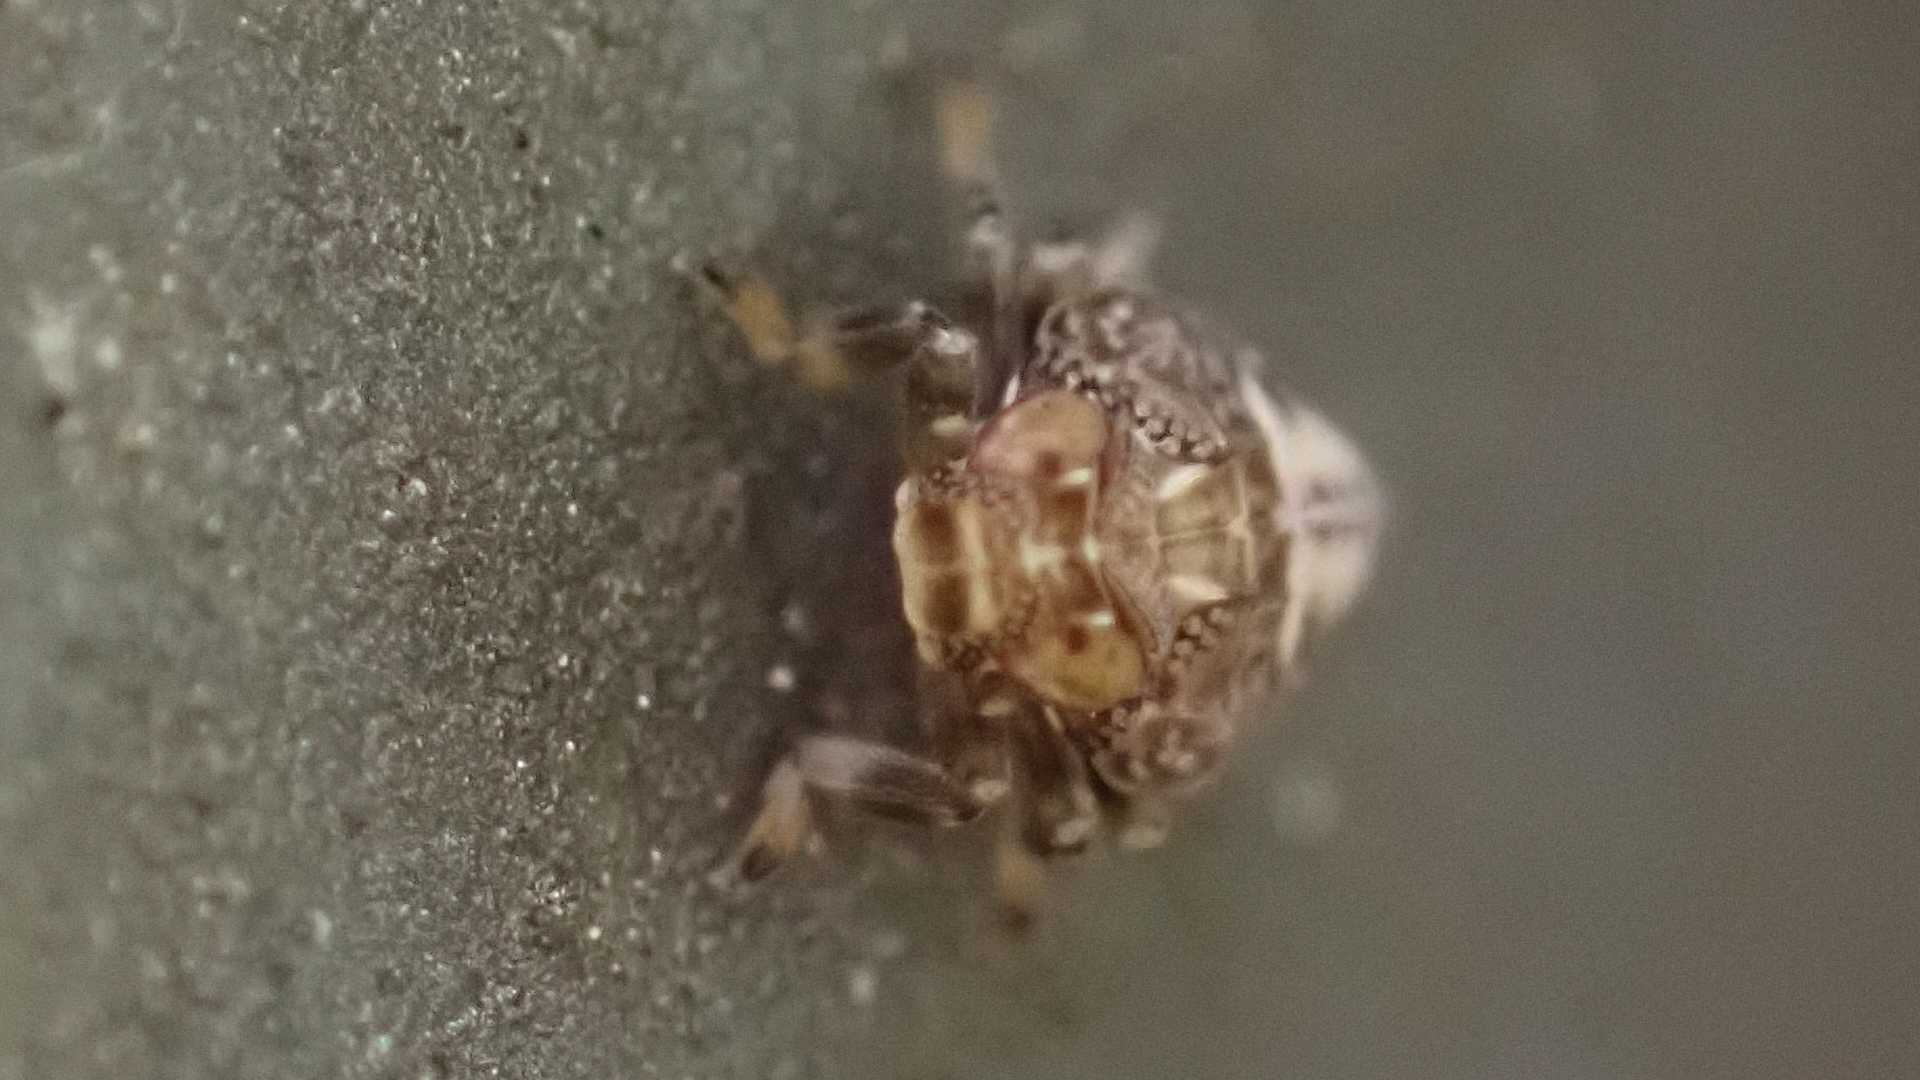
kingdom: Animalia
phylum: Arthropoda
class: Insecta
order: Hemiptera
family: Issidae
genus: Issus
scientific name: Issus coleoptratus
